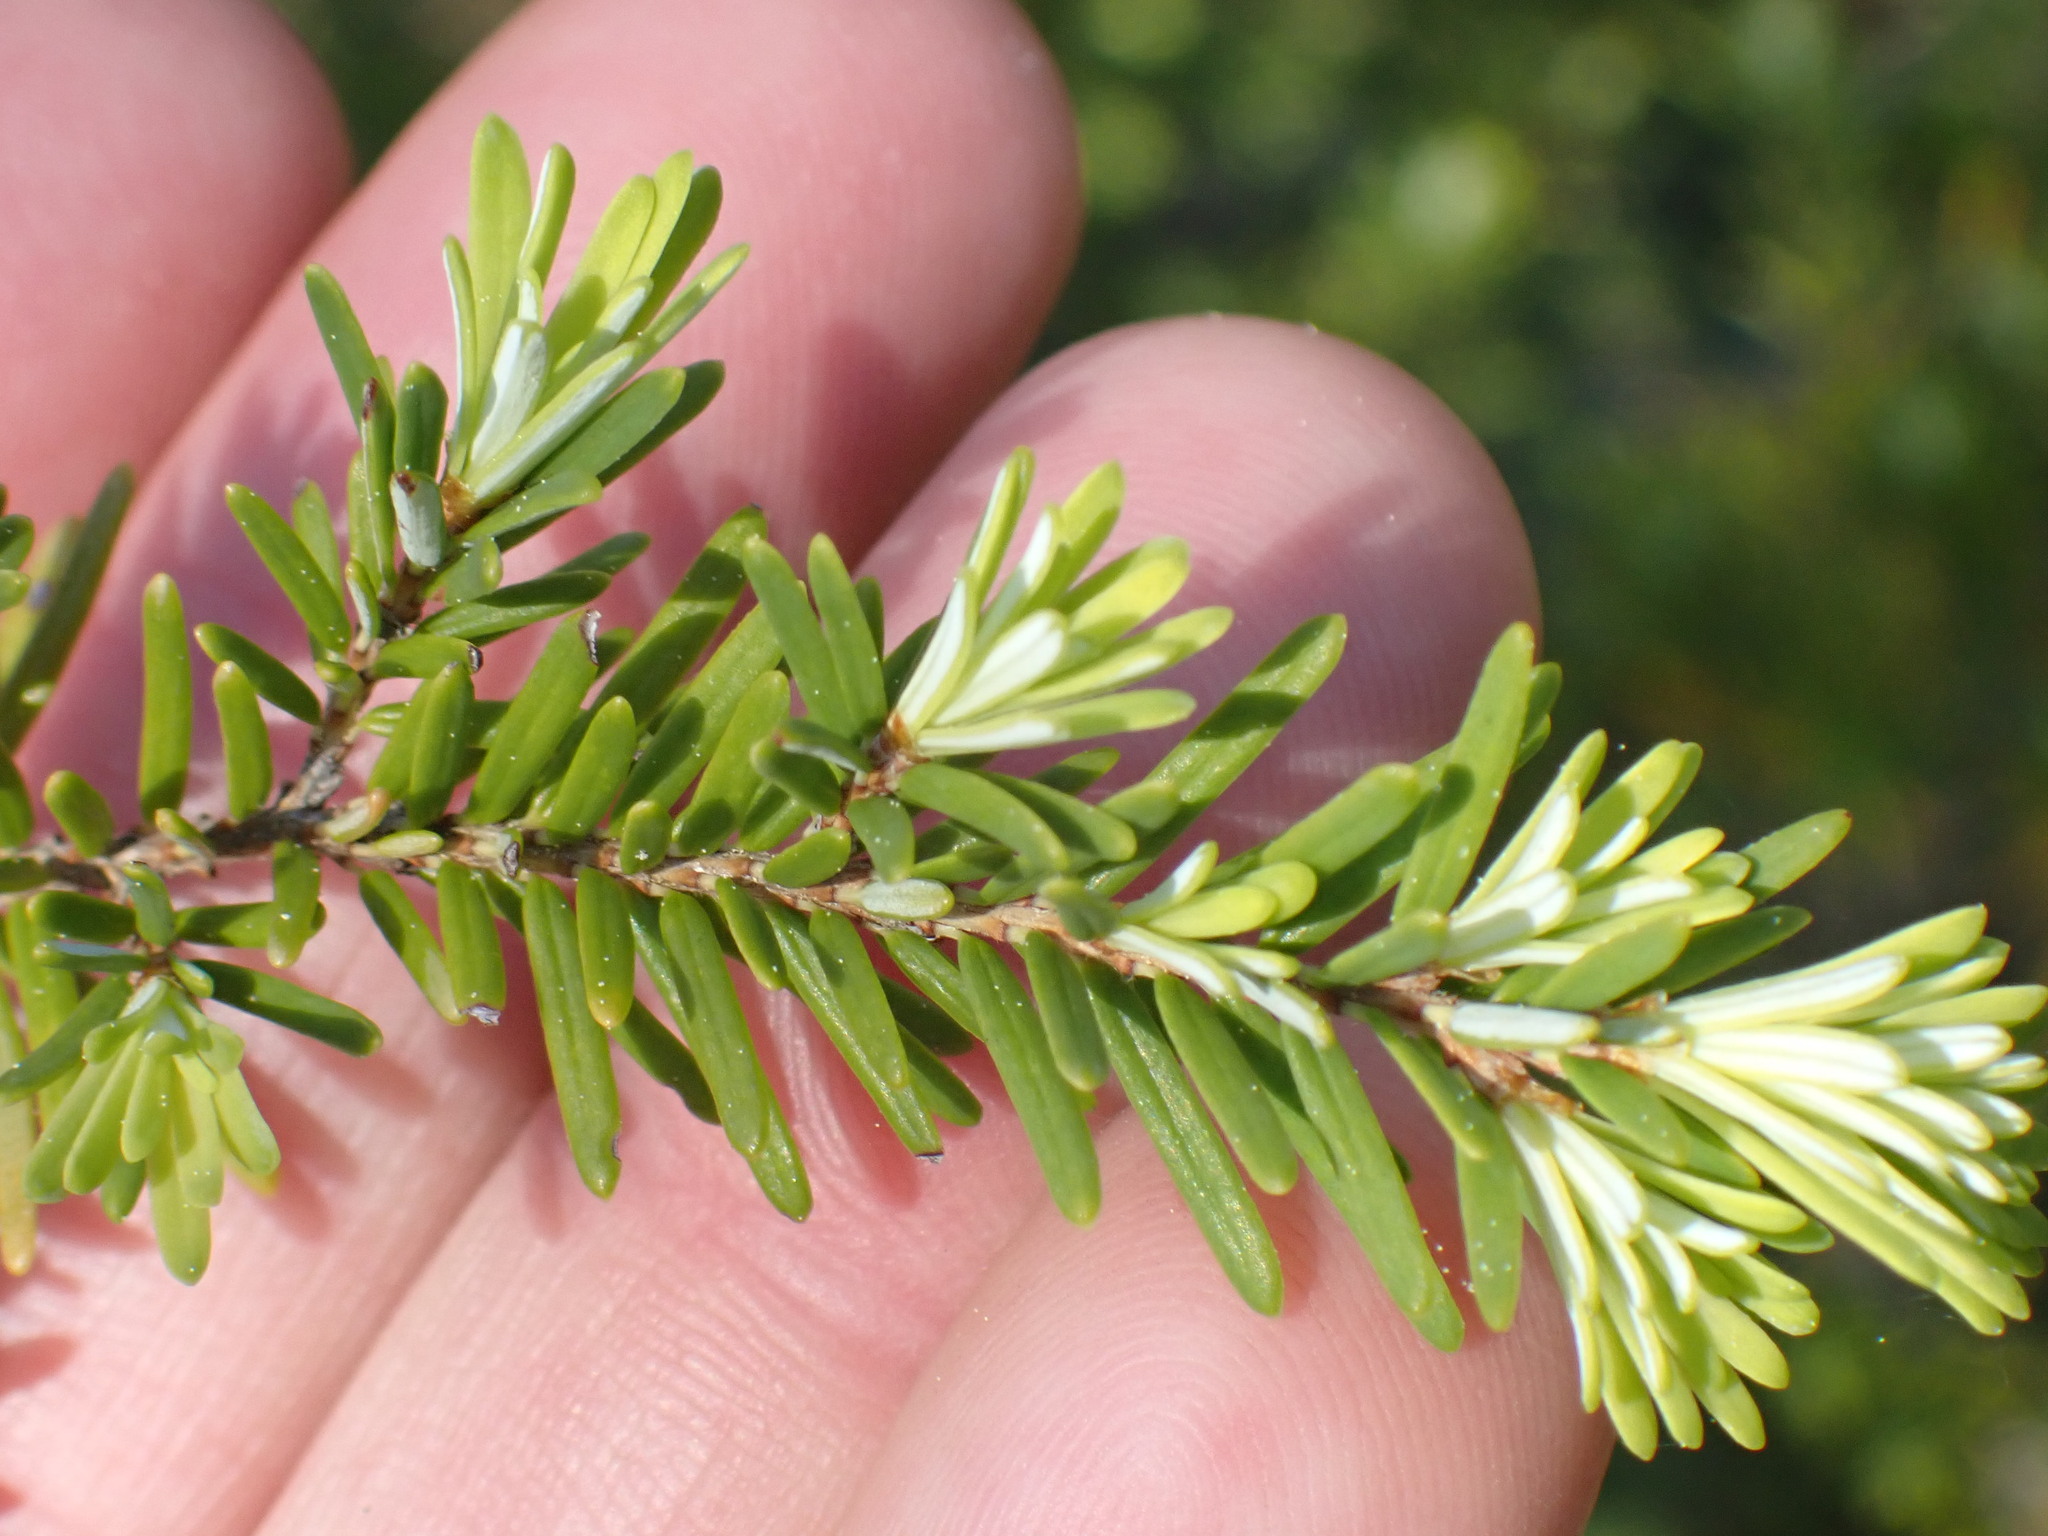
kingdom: Plantae
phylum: Tracheophyta
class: Pinopsida
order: Pinales
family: Pinaceae
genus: Tsuga
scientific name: Tsuga heterophylla
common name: Western hemlock
